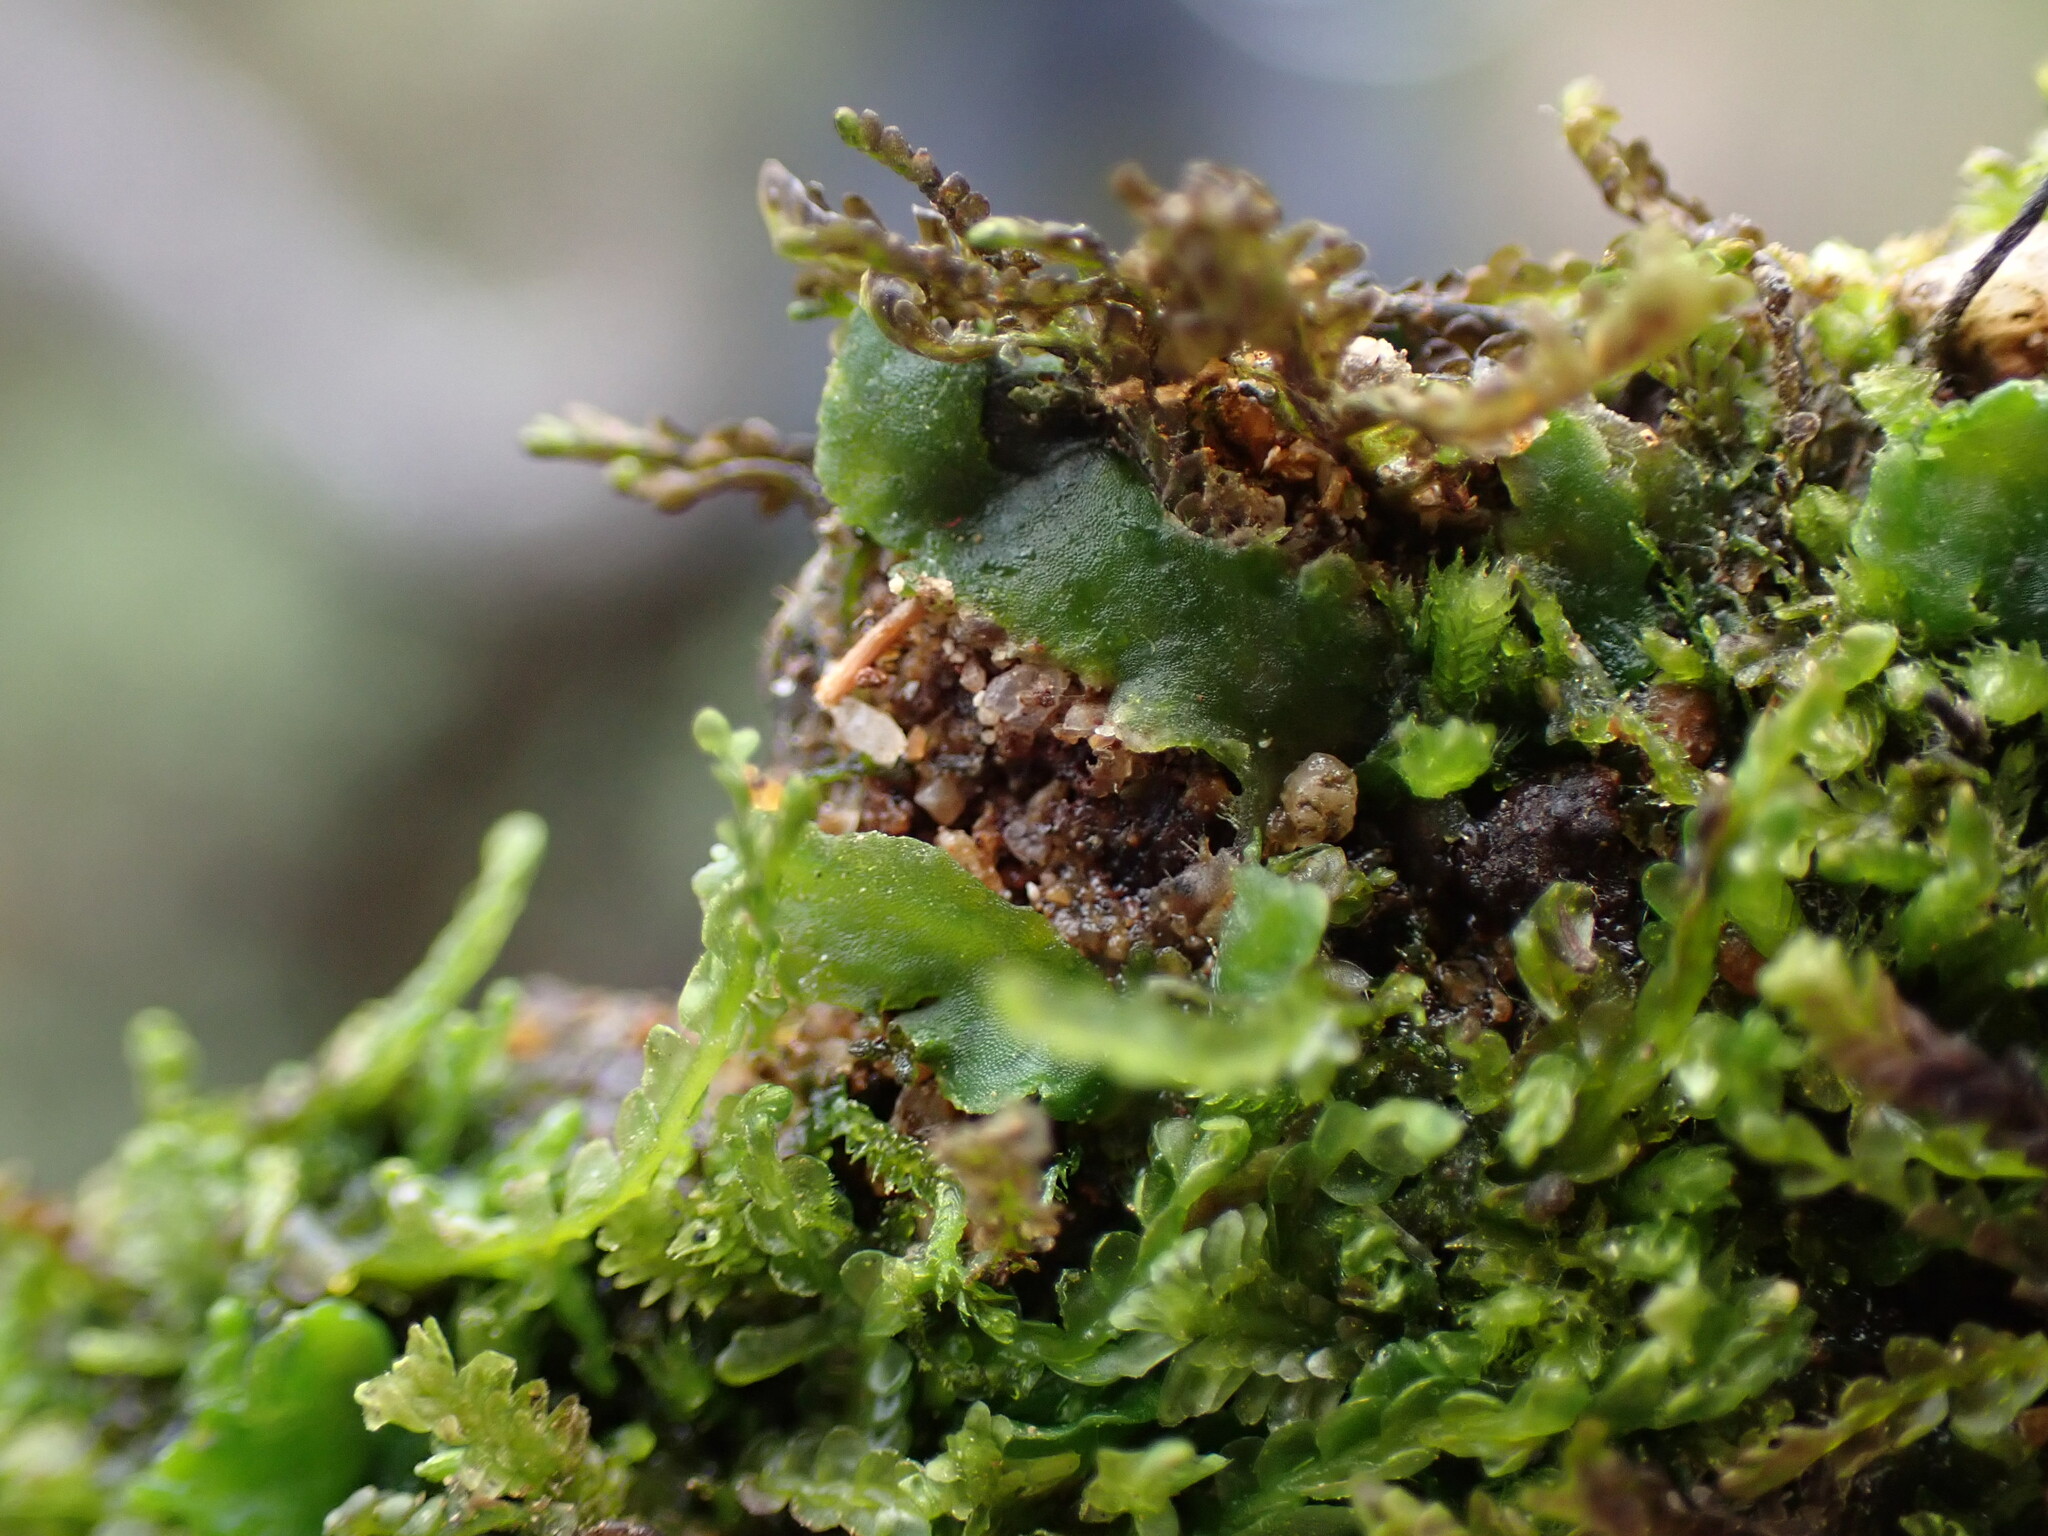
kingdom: Plantae
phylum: Marchantiophyta
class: Jungermanniopsida
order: Metzgeriales
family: Aneuraceae
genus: Aneura
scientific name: Aneura pinguis
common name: Common greasewort
